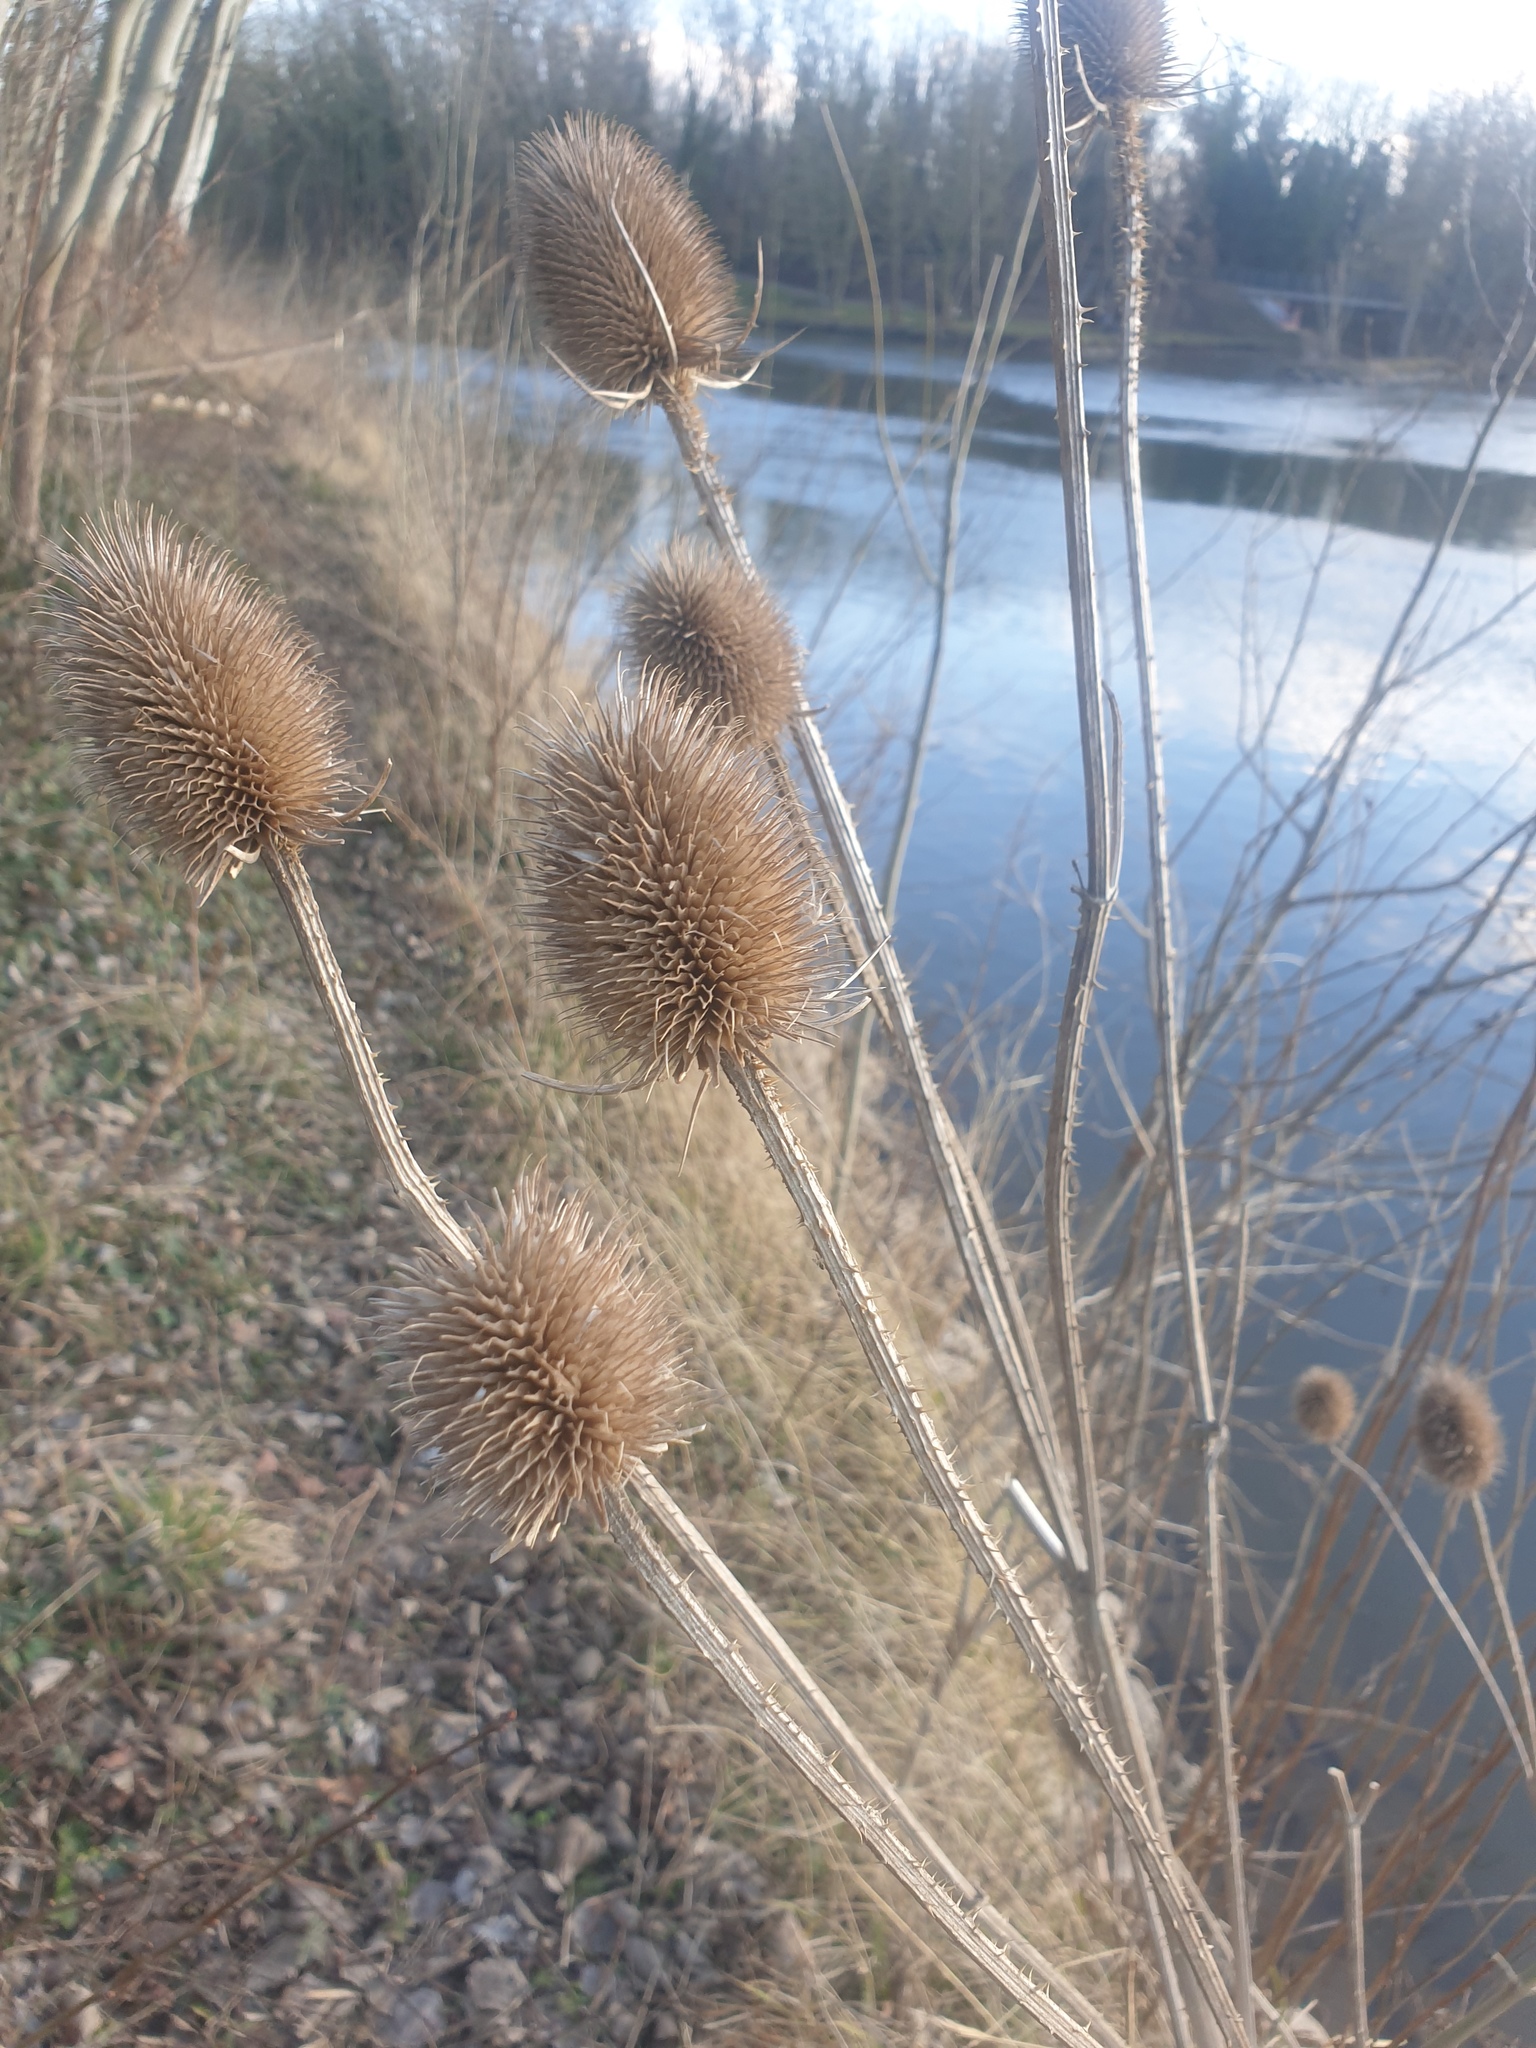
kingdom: Plantae
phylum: Tracheophyta
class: Magnoliopsida
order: Dipsacales
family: Caprifoliaceae
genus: Dipsacus
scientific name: Dipsacus fullonum
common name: Teasel
